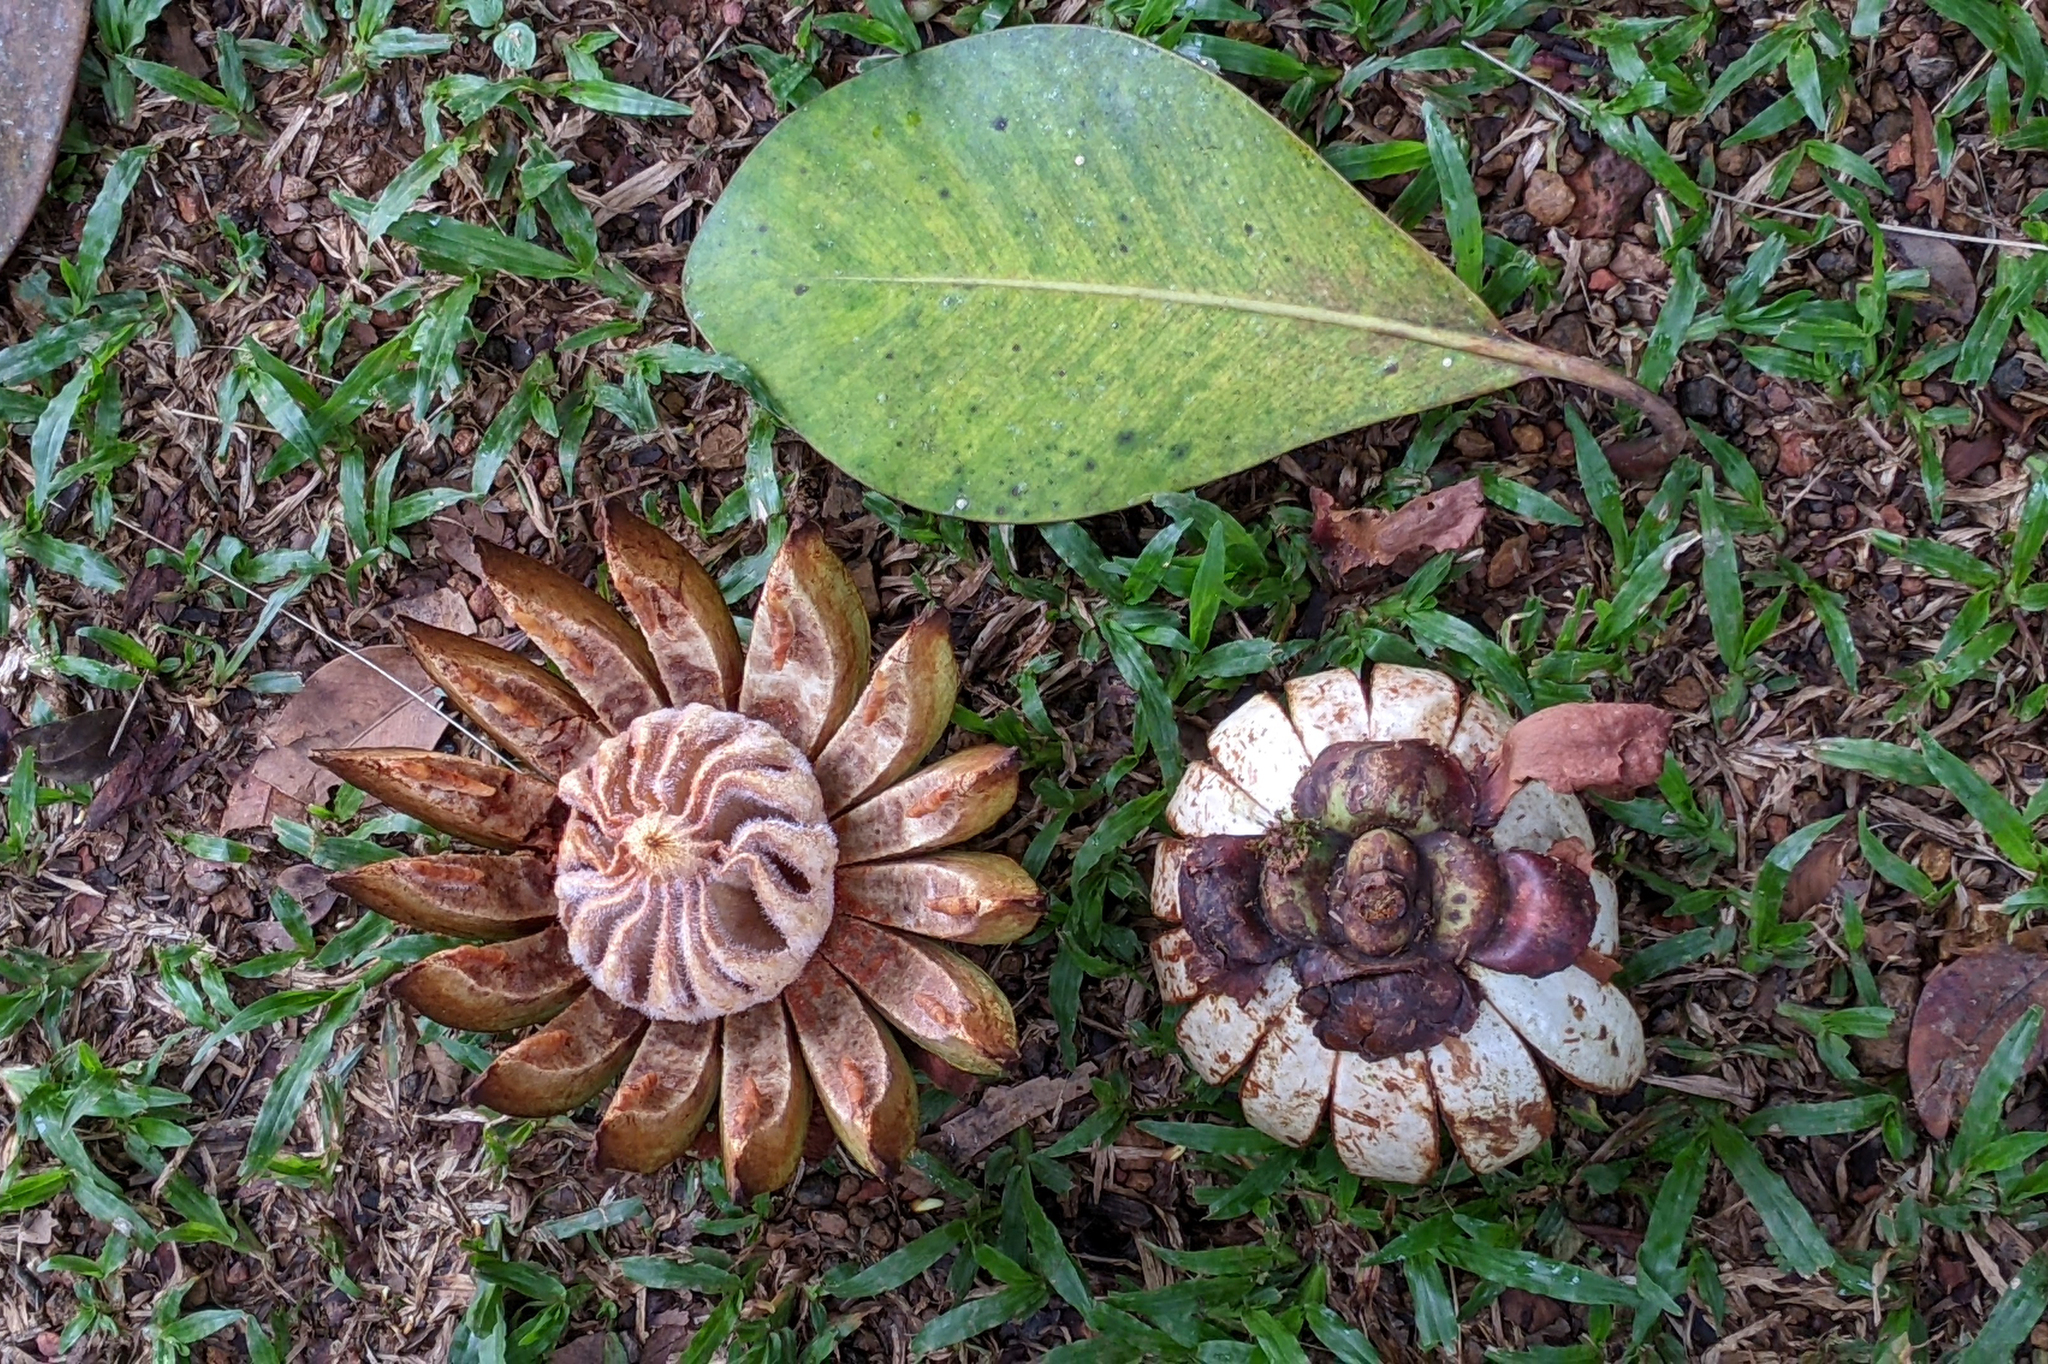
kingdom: Plantae
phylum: Tracheophyta
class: Magnoliopsida
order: Malpighiales
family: Clusiaceae
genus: Clusia
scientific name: Clusia grandiflora
